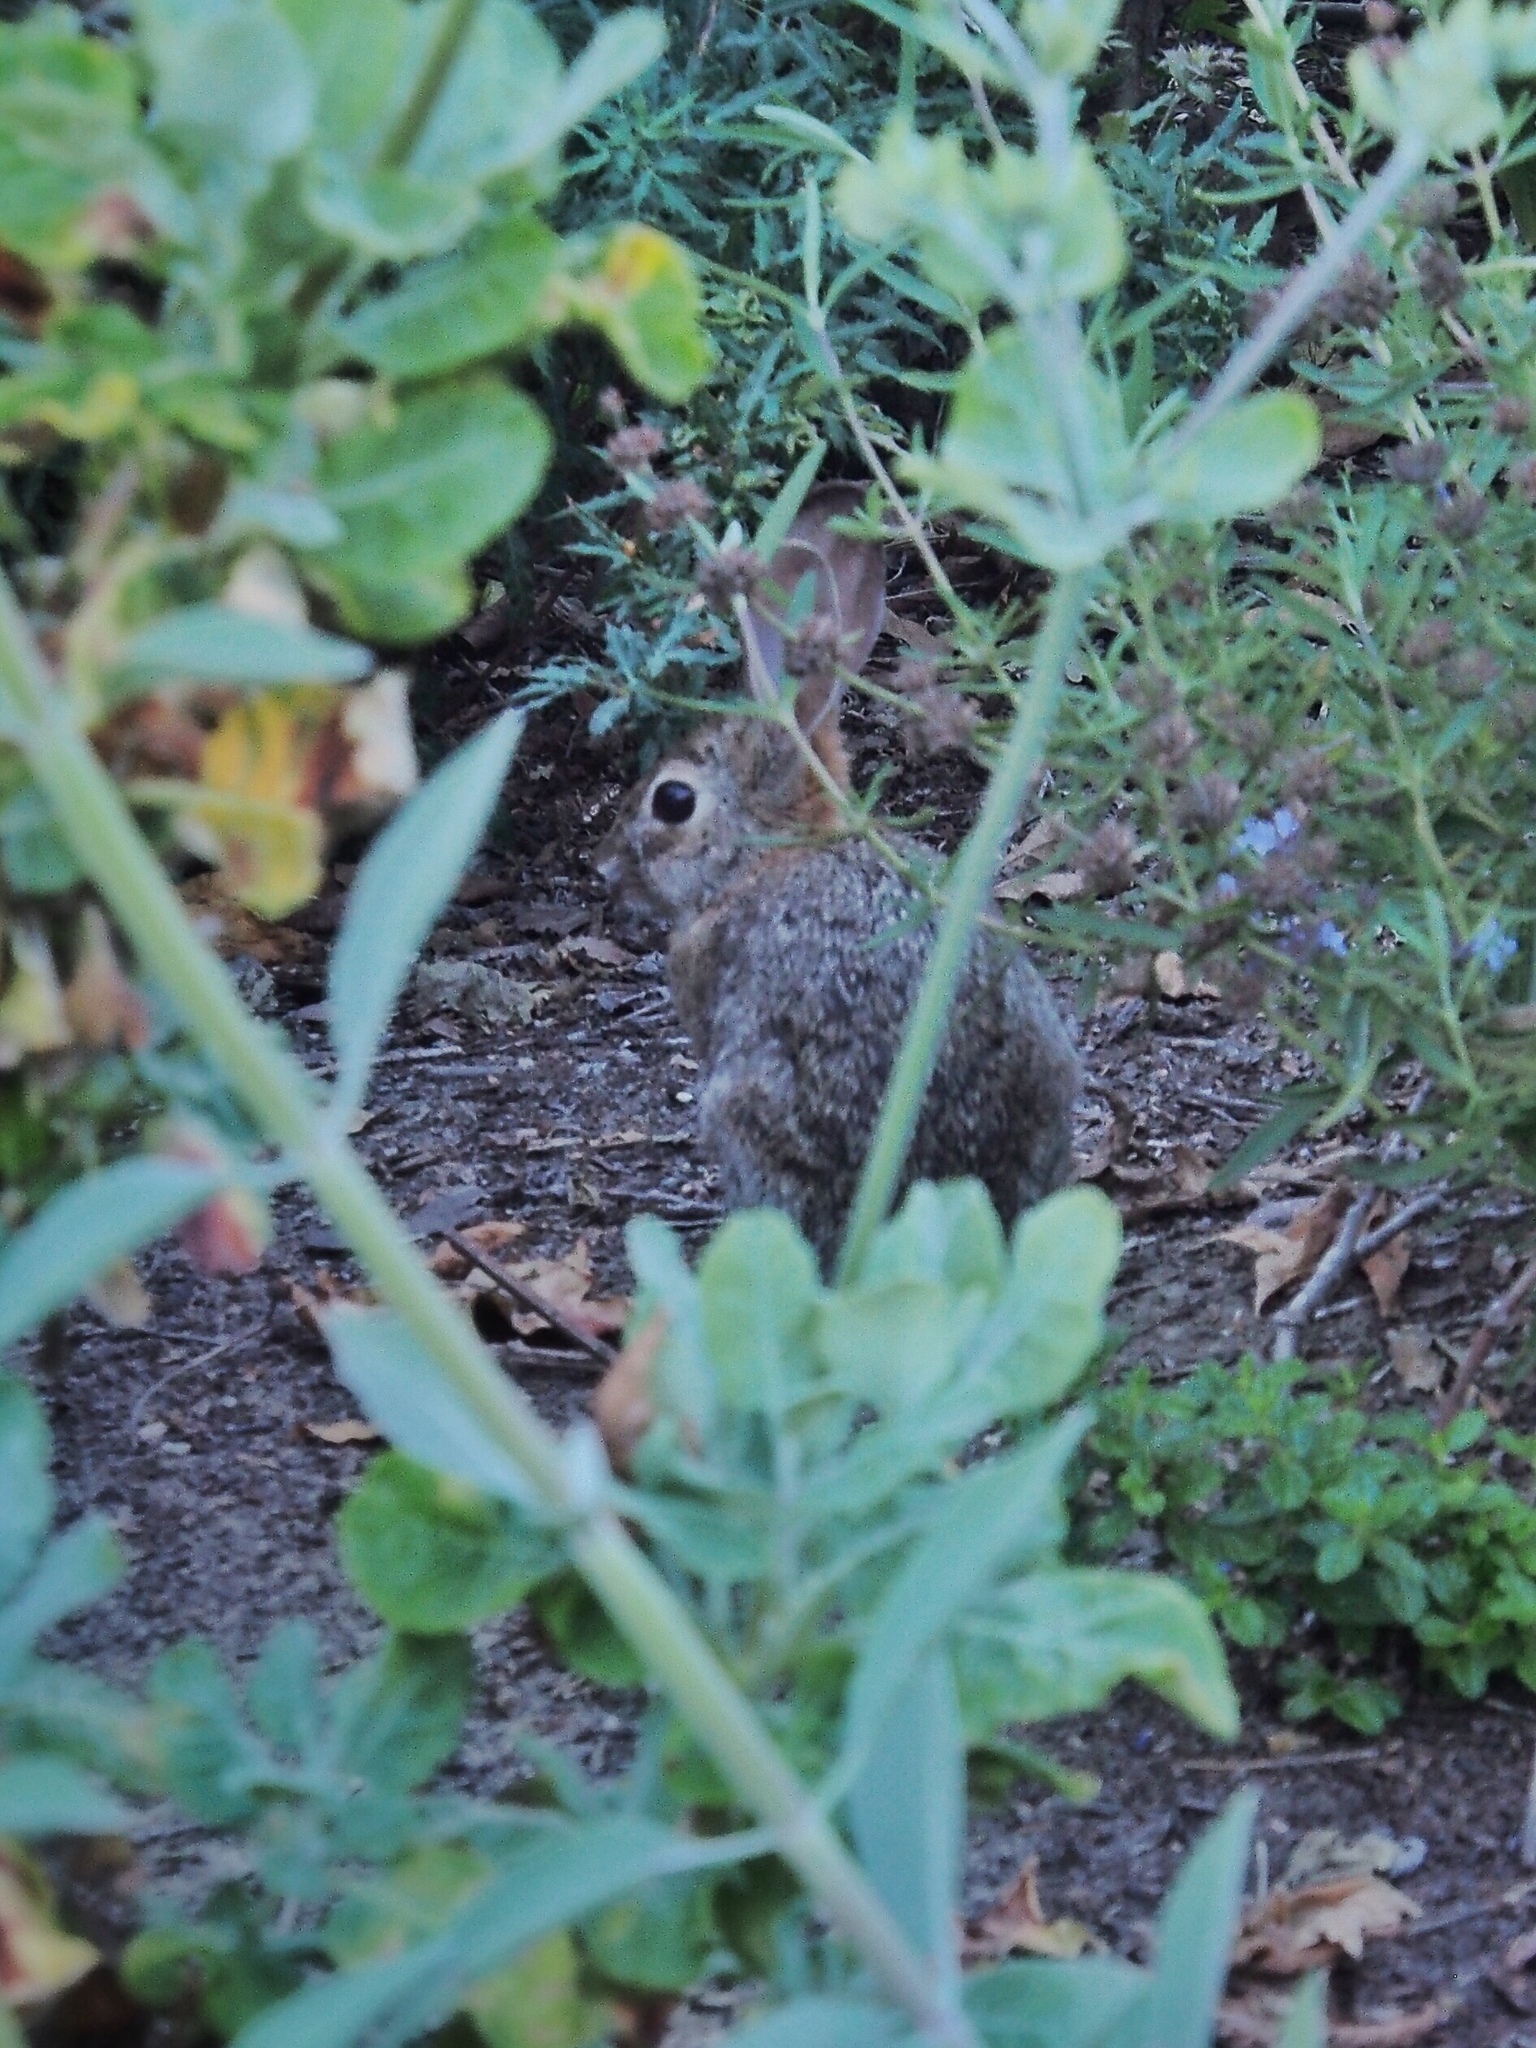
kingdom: Animalia
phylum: Chordata
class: Mammalia
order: Lagomorpha
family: Leporidae
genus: Sylvilagus
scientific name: Sylvilagus audubonii
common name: Desert cottontail
